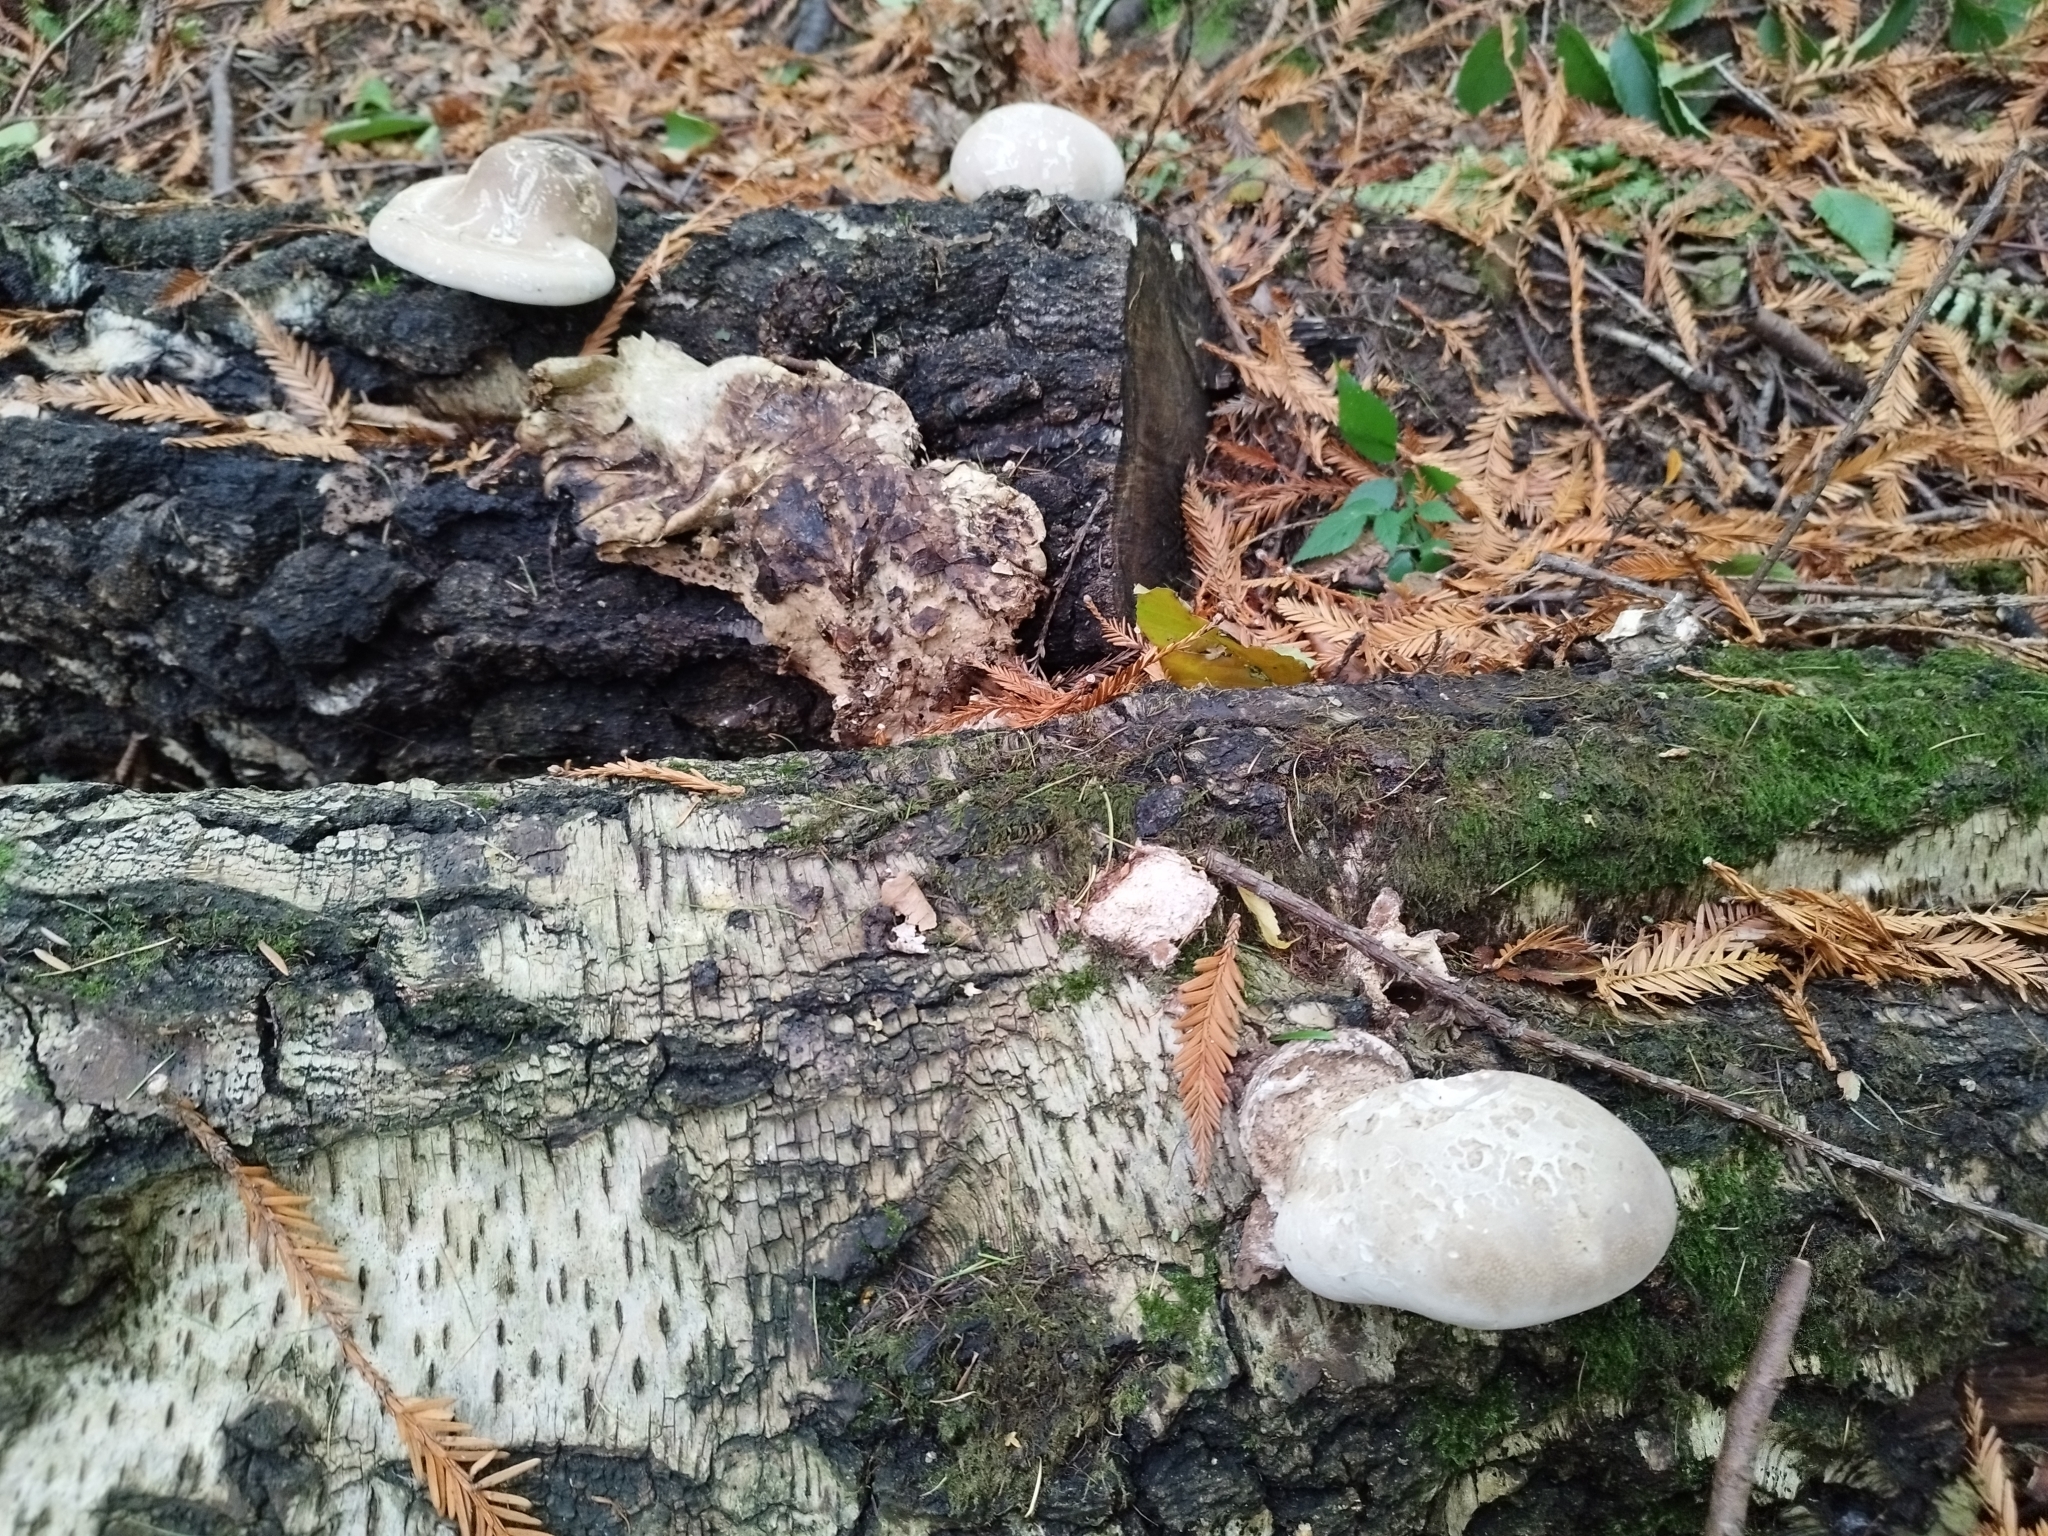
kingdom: Fungi
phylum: Basidiomycota
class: Agaricomycetes
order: Polyporales
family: Fomitopsidaceae
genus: Fomitopsis
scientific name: Fomitopsis betulina
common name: Birch polypore
